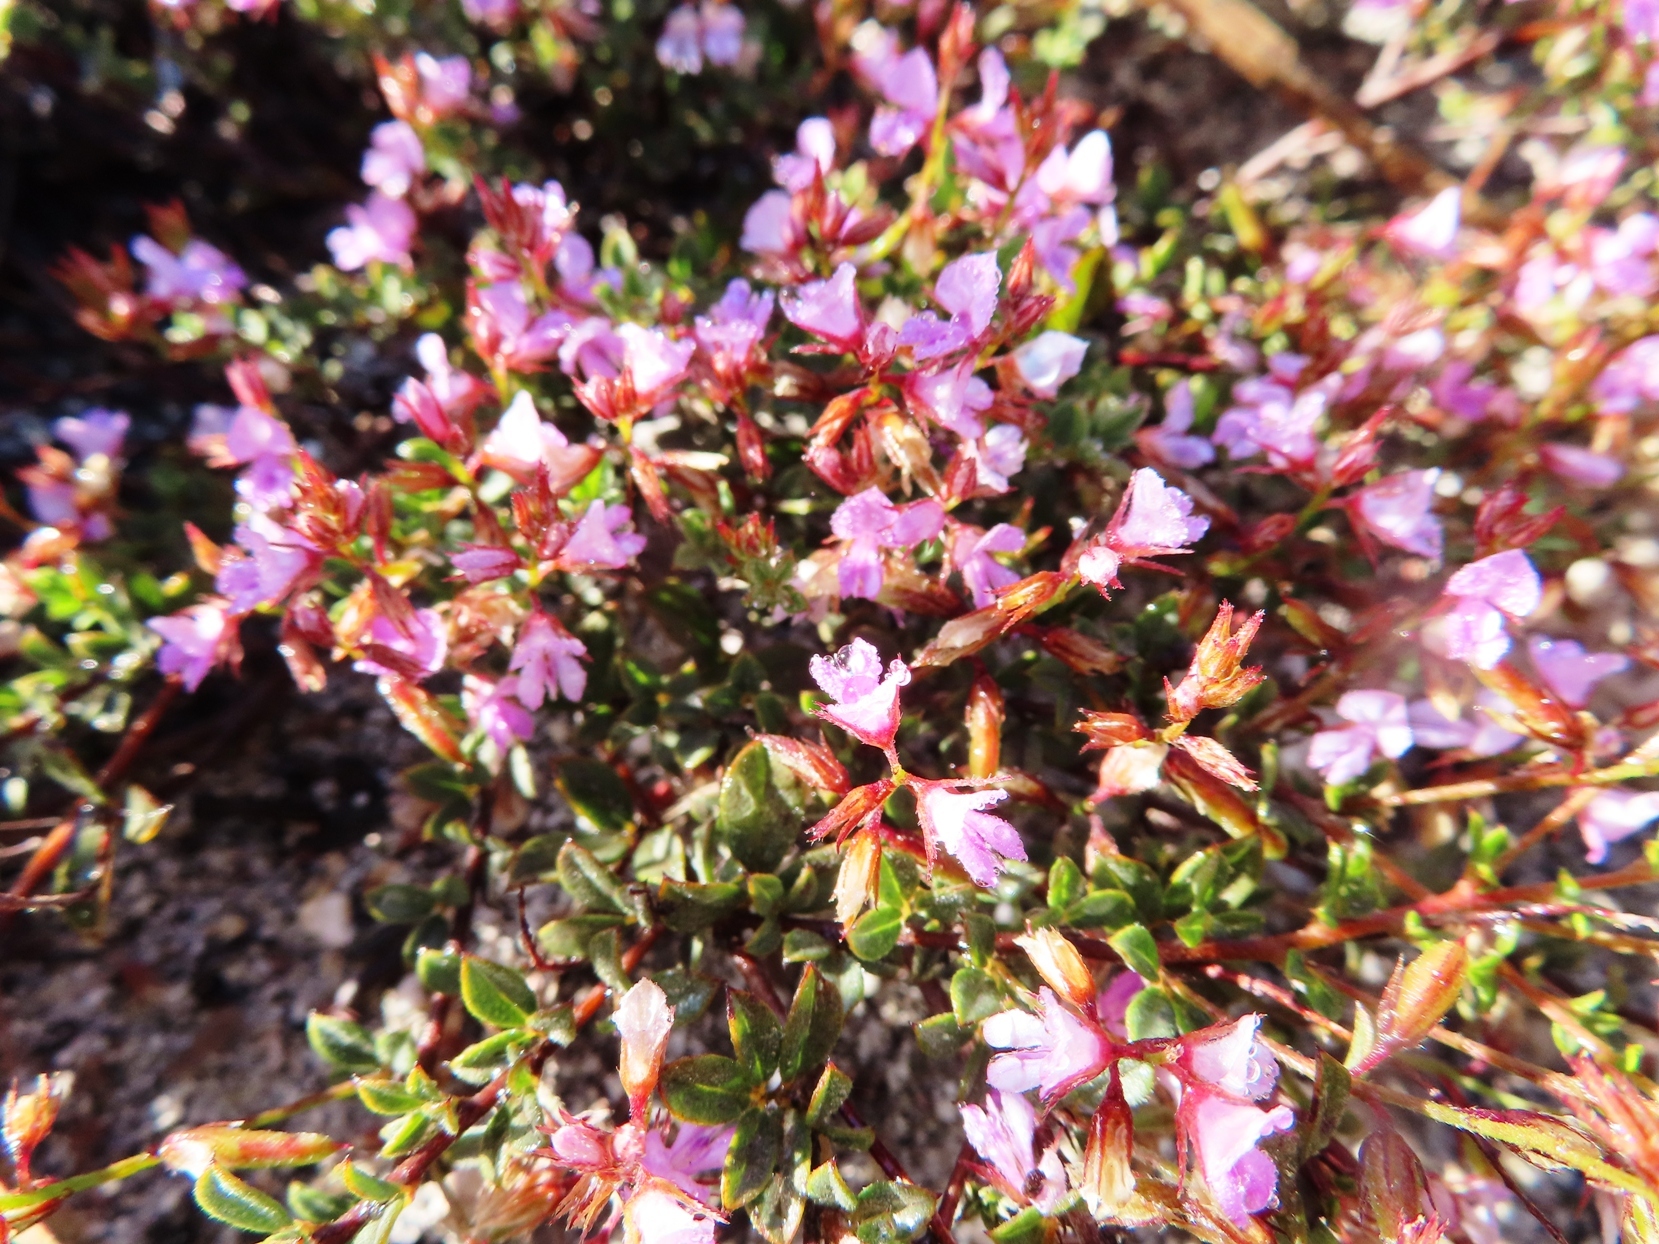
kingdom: Plantae
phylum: Tracheophyta
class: Magnoliopsida
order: Fabales
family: Fabaceae
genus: Indigofera
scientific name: Indigofera sarmentosa
